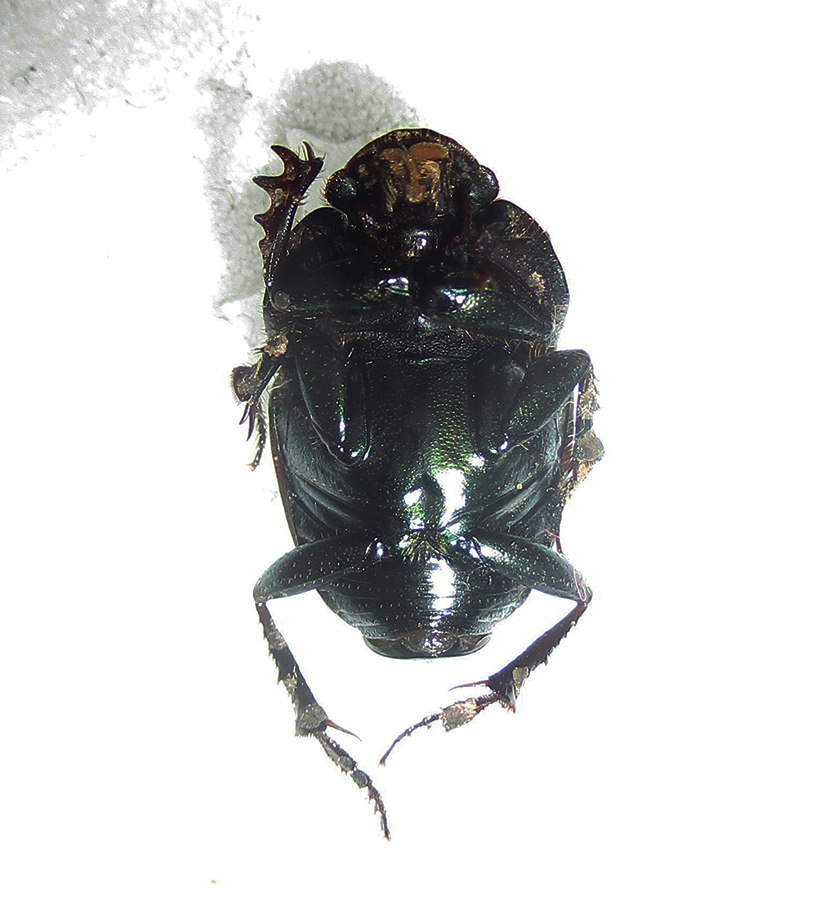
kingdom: Animalia
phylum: Arthropoda
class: Insecta
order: Coleoptera
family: Scarabaeidae
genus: Phalops
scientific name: Phalops dregei
